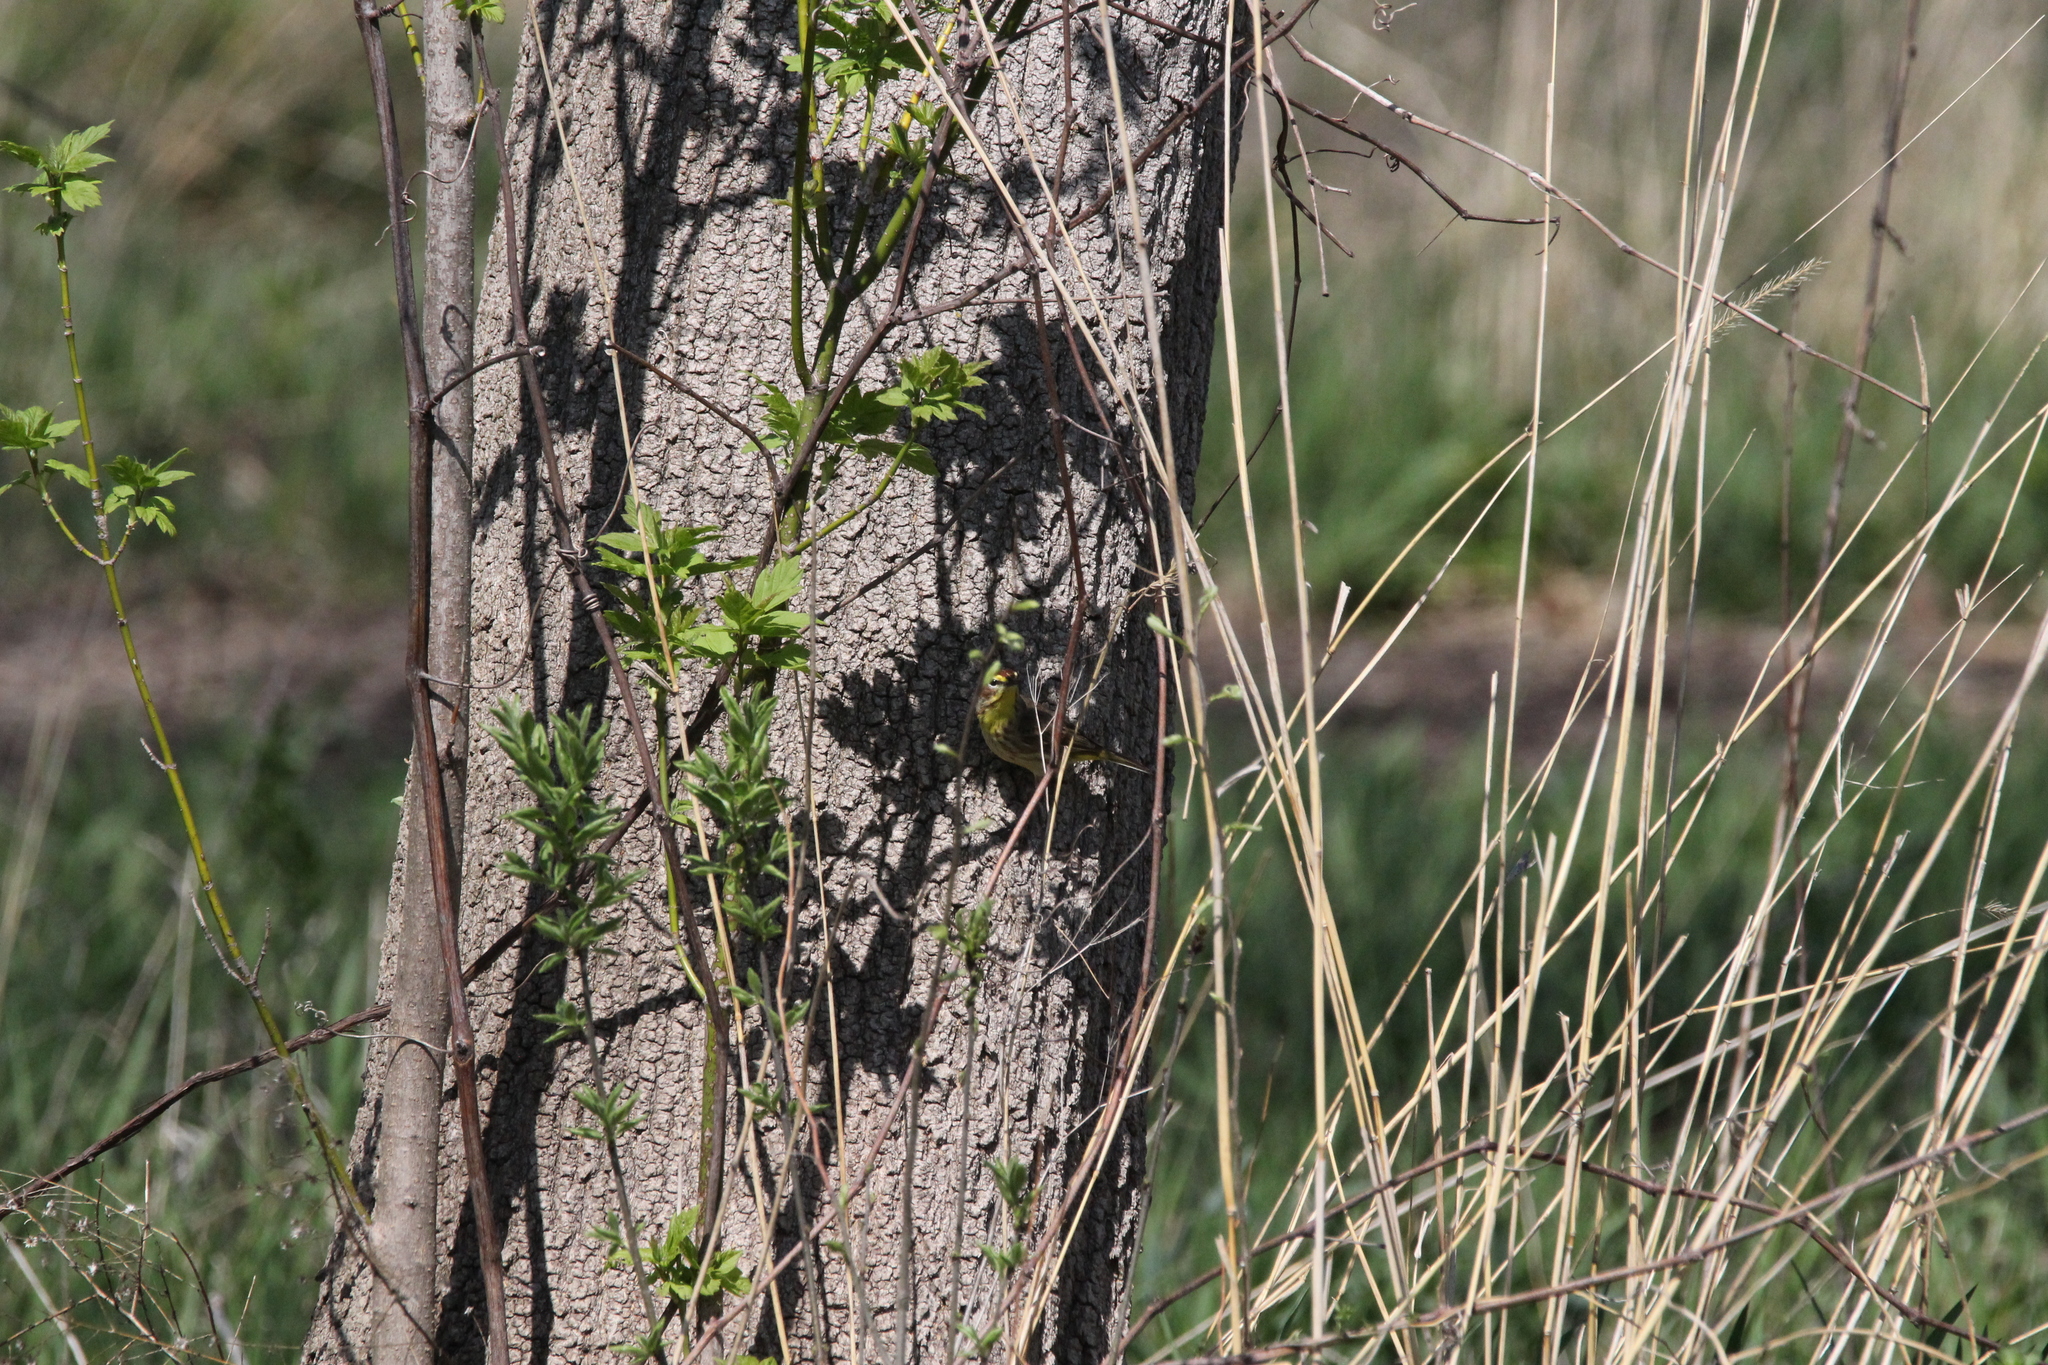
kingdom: Animalia
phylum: Chordata
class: Aves
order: Passeriformes
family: Parulidae
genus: Setophaga
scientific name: Setophaga palmarum
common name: Palm warbler
